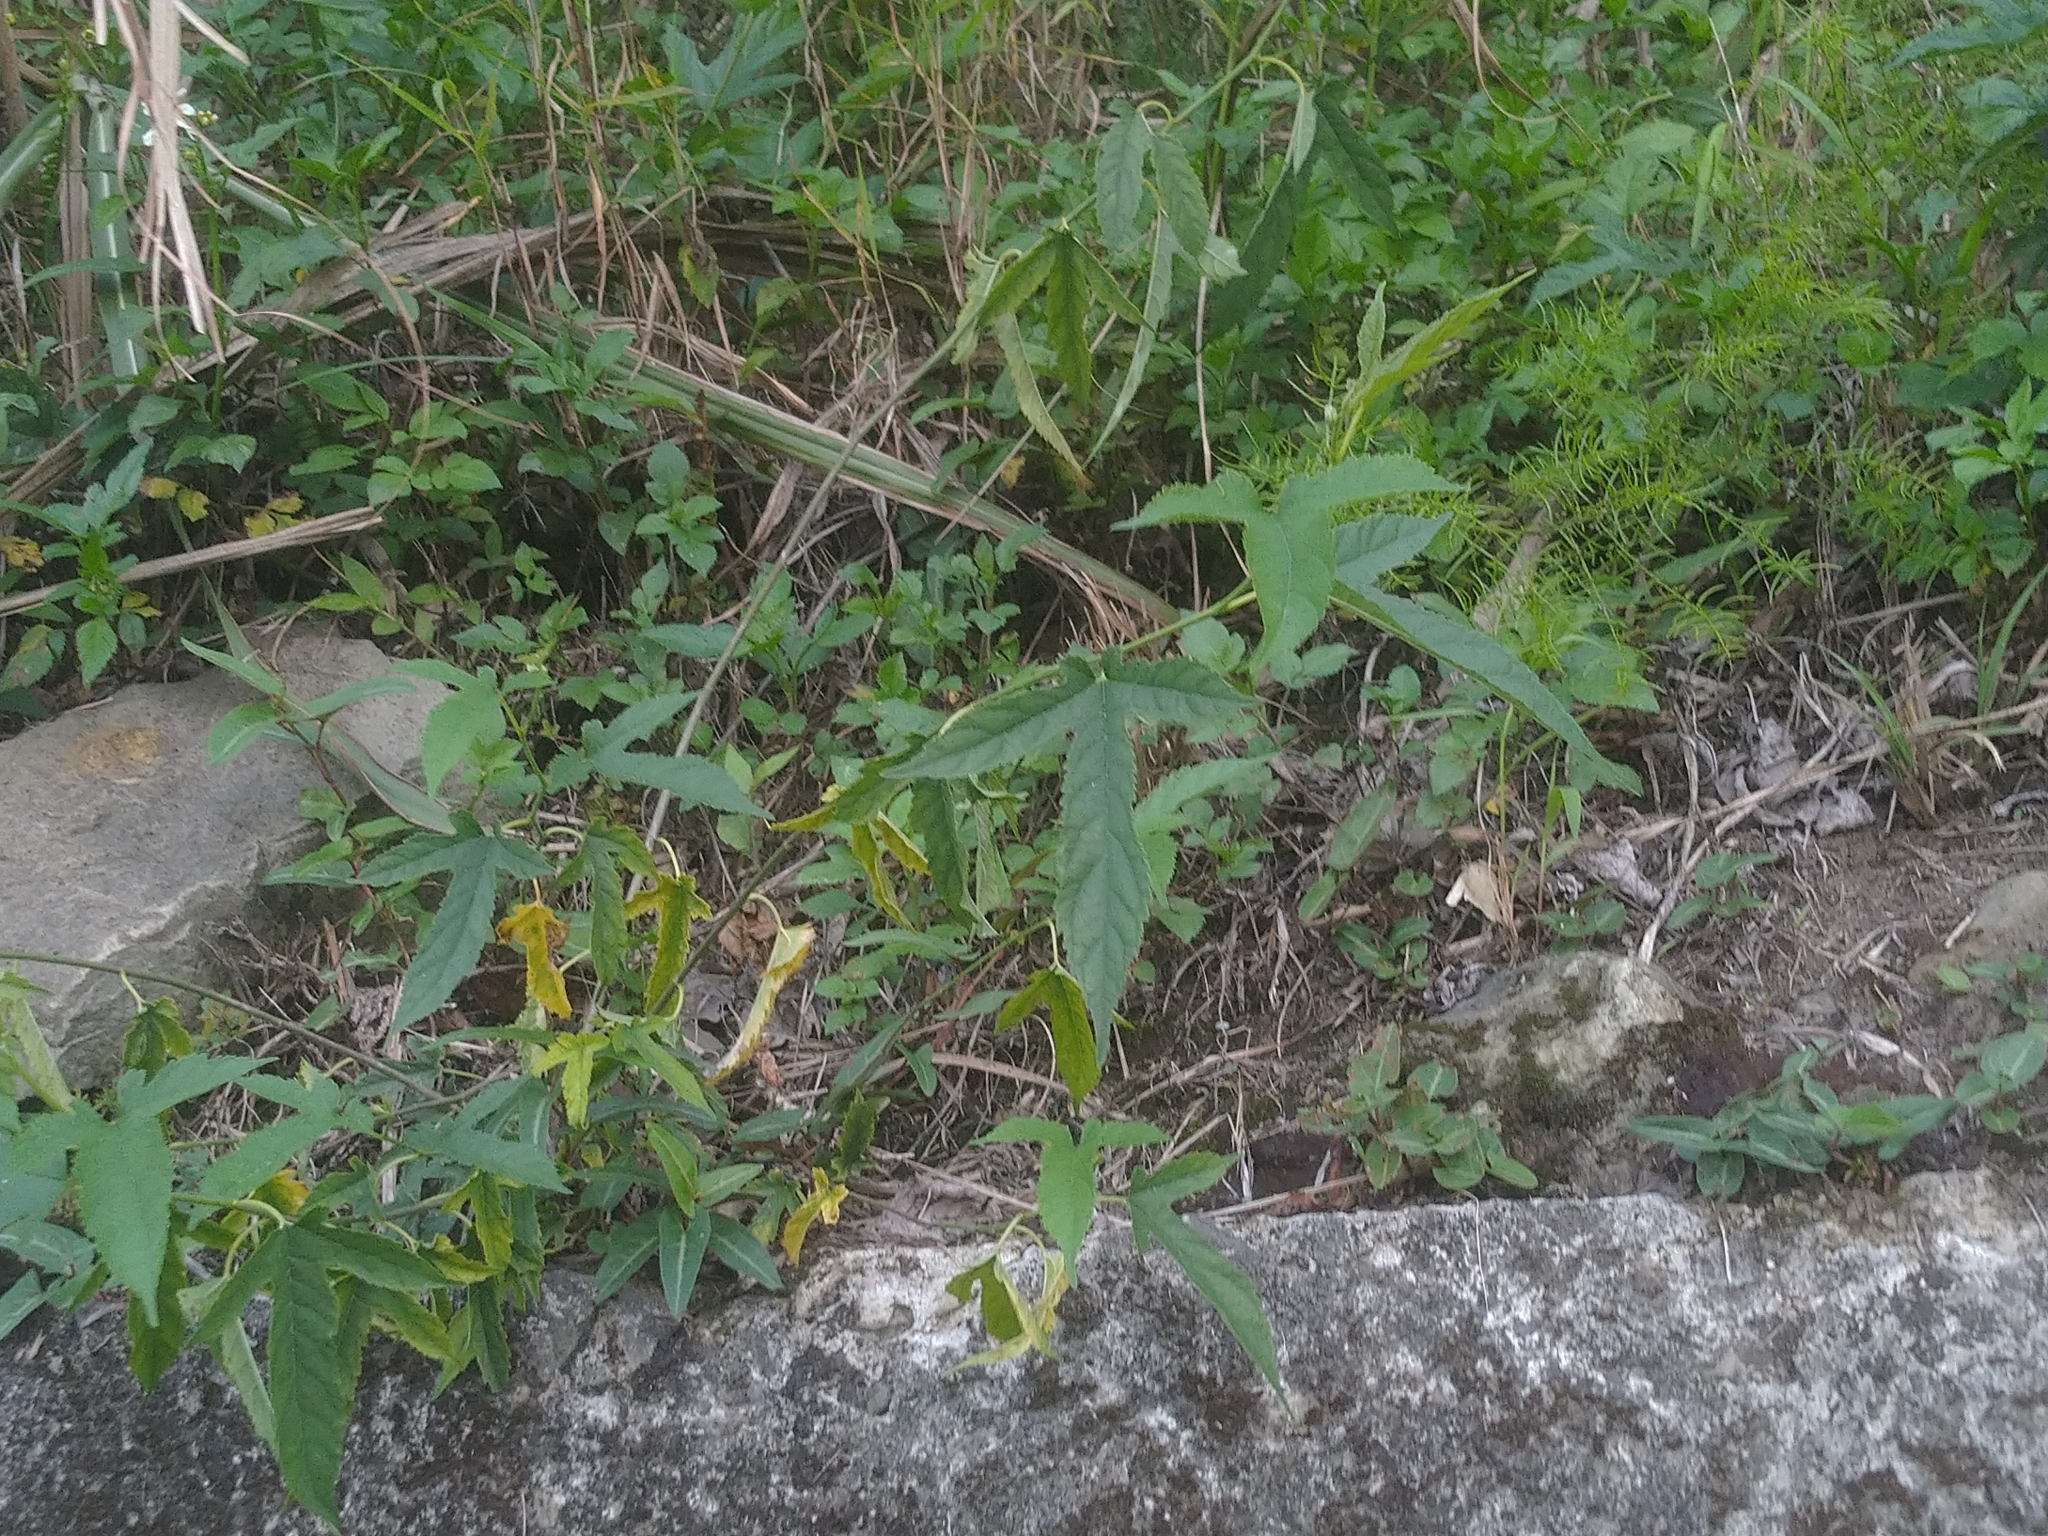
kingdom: Plantae
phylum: Tracheophyta
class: Magnoliopsida
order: Rosales
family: Moraceae
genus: Morus
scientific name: Morus indica
